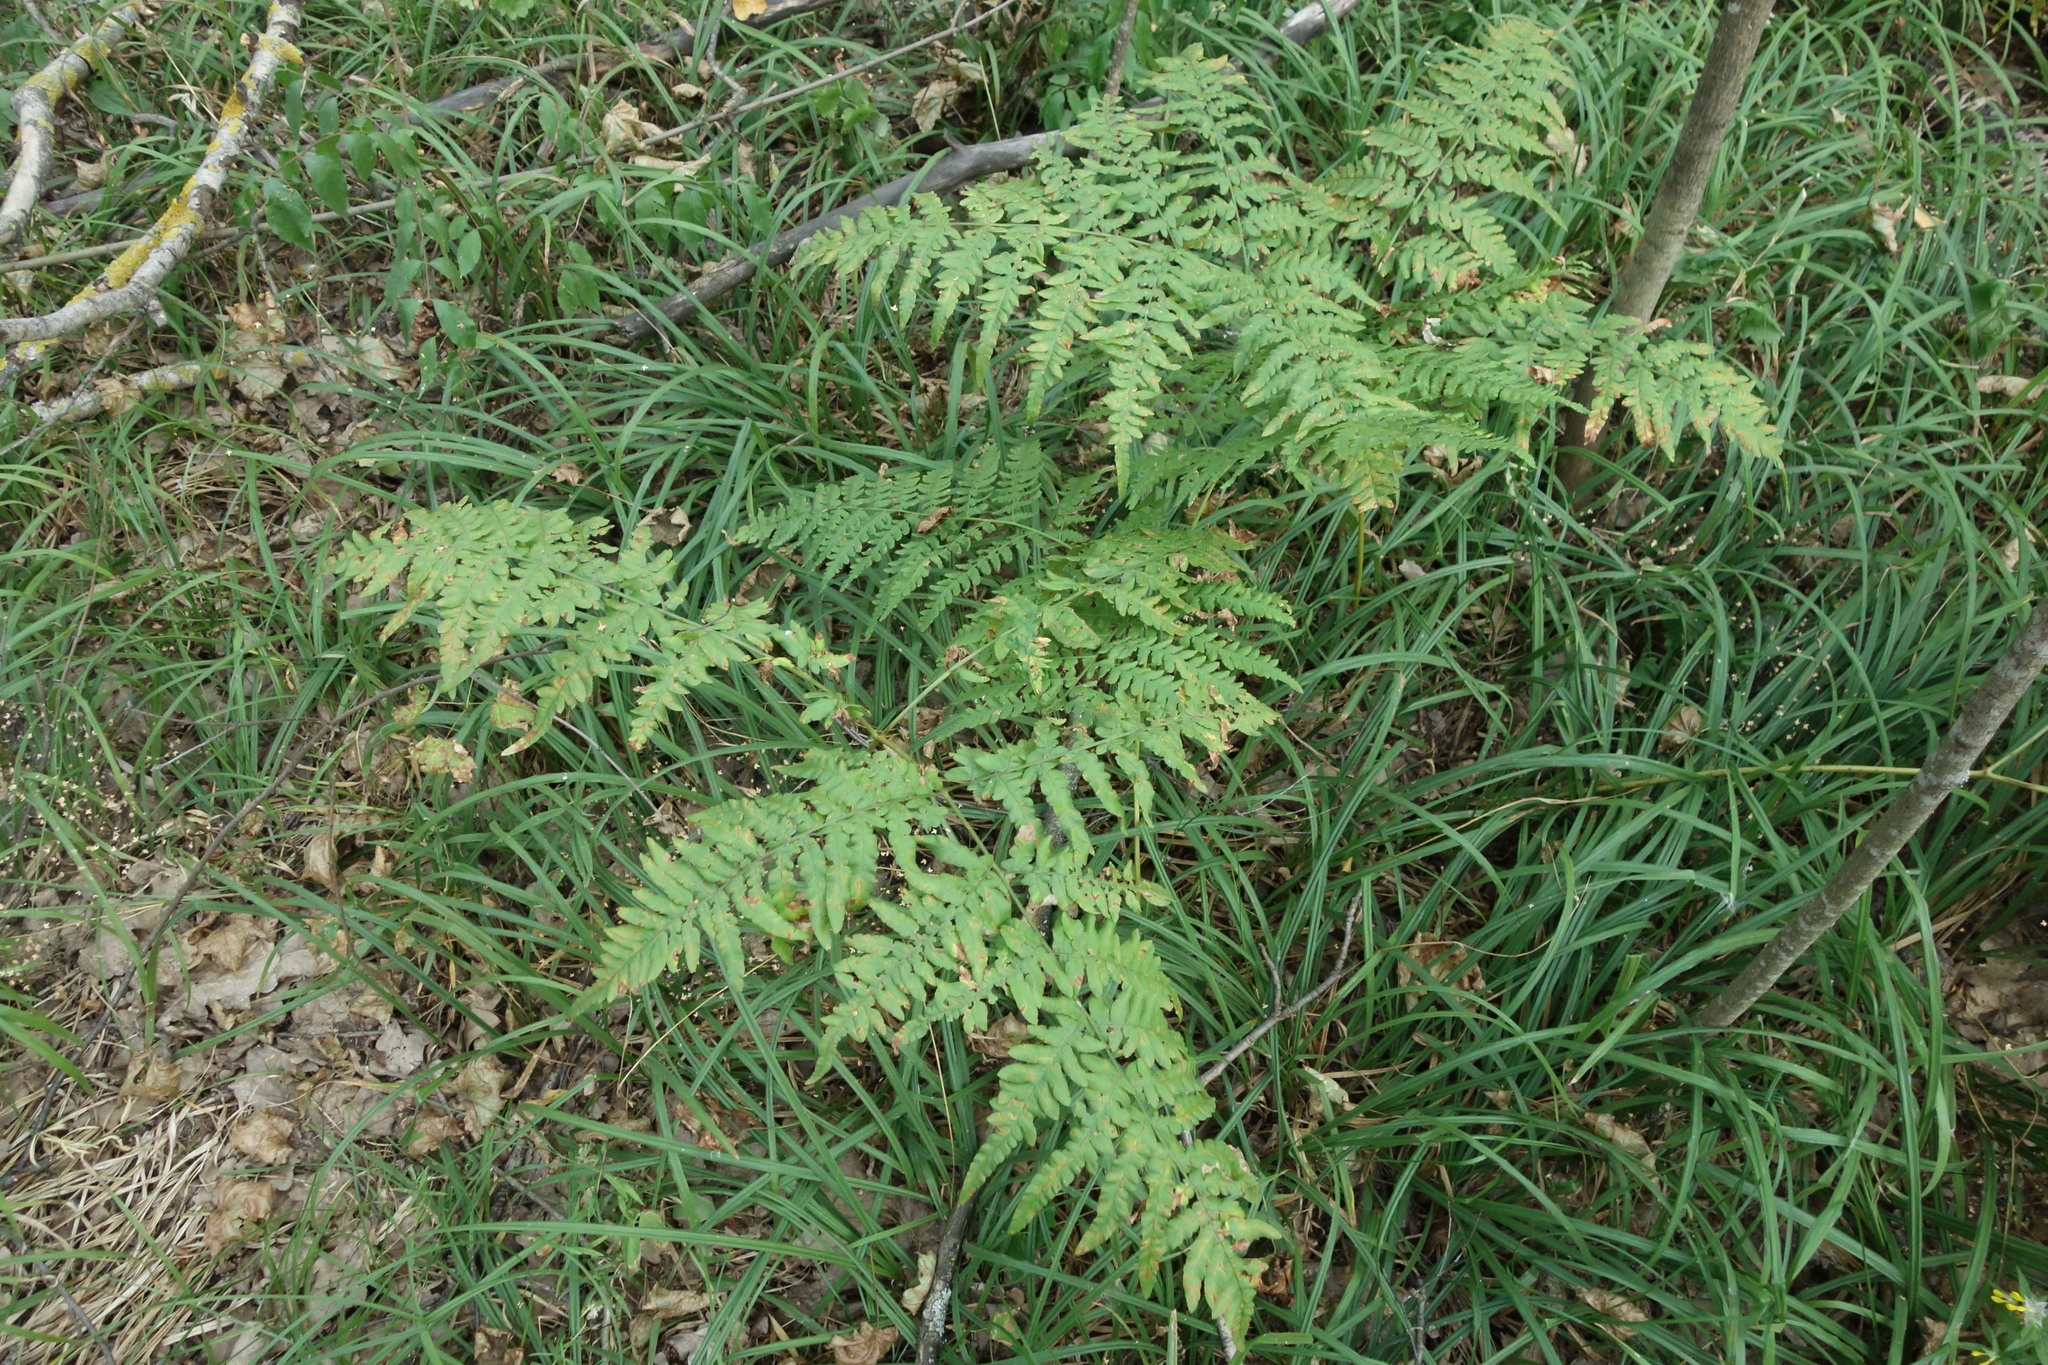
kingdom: Plantae
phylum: Tracheophyta
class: Polypodiopsida
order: Polypodiales
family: Dennstaedtiaceae
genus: Pteridium
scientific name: Pteridium aquilinum
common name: Bracken
